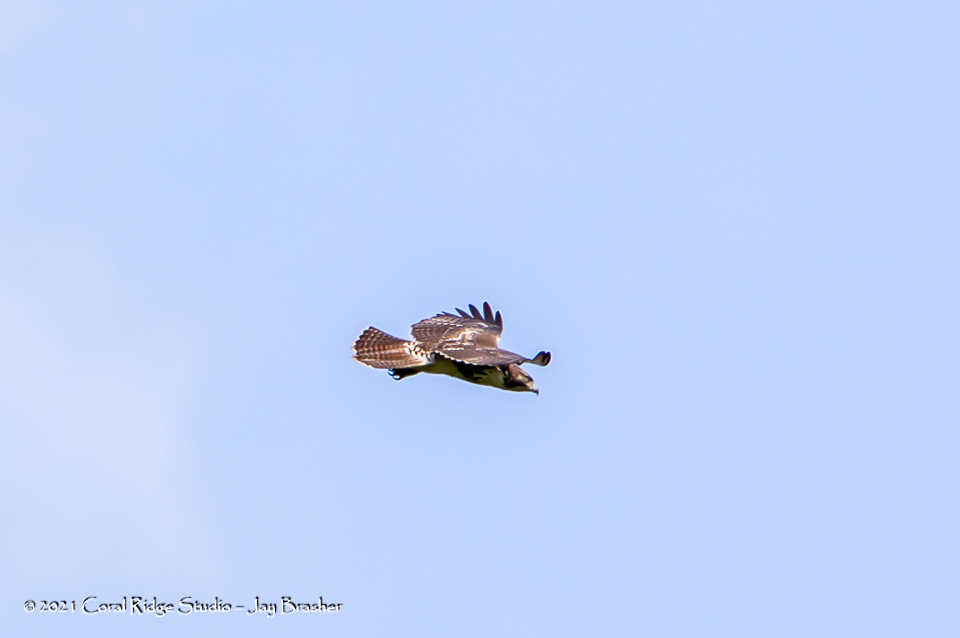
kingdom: Animalia
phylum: Chordata
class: Aves
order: Accipitriformes
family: Accipitridae
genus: Buteo
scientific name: Buteo jamaicensis
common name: Red-tailed hawk
